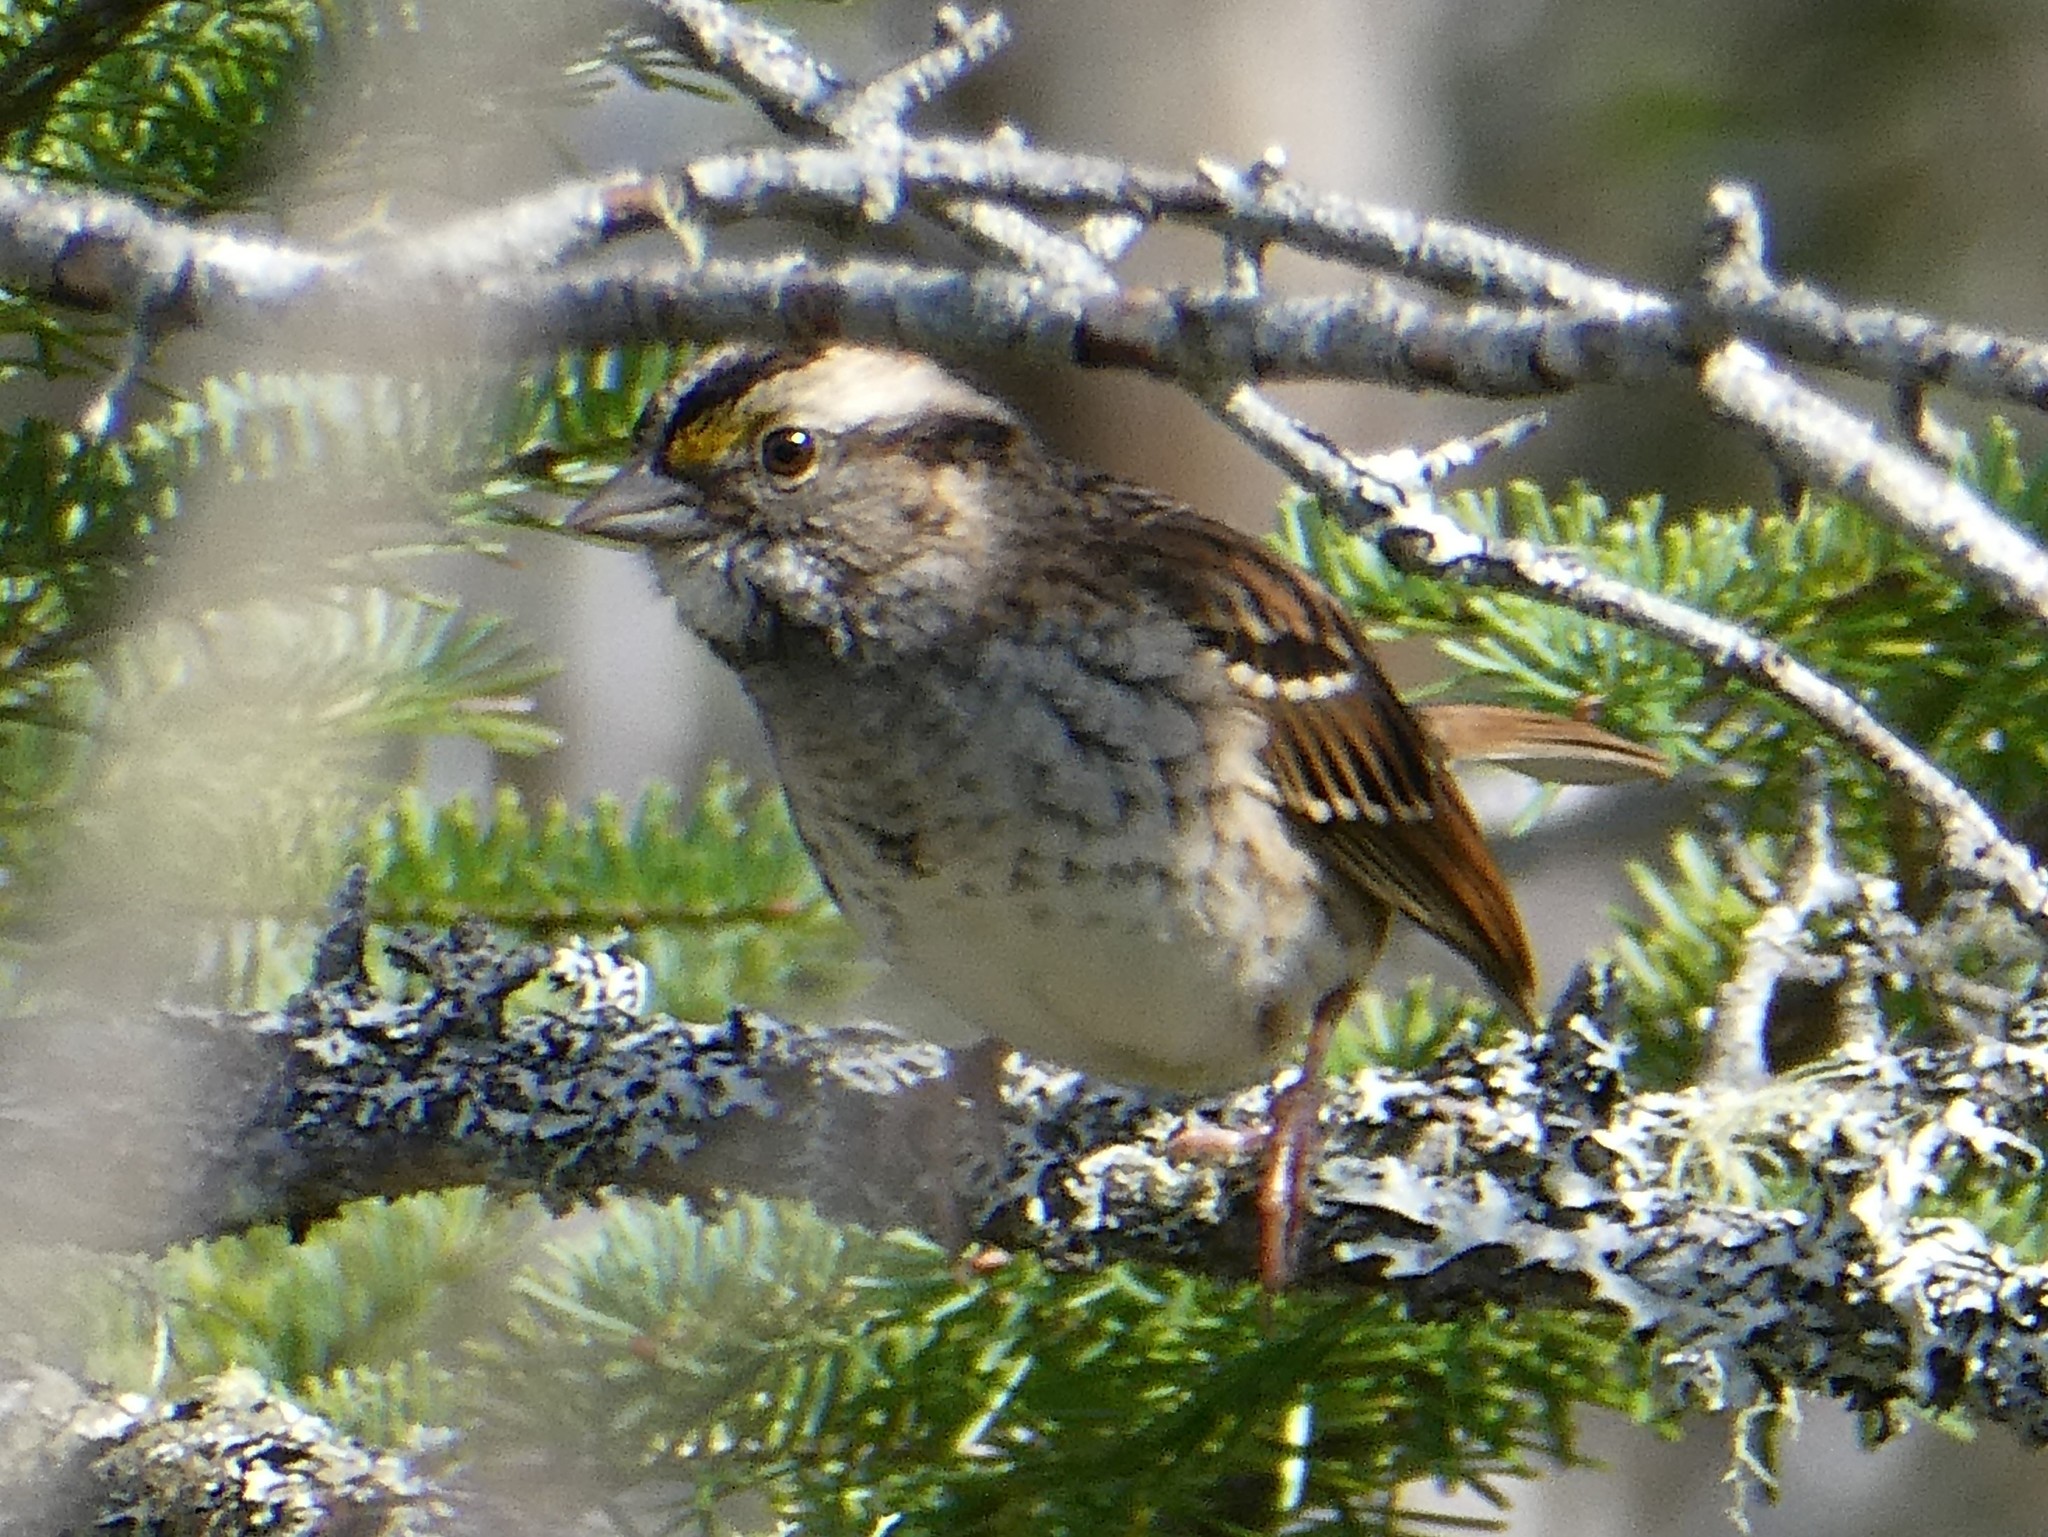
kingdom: Animalia
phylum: Chordata
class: Aves
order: Passeriformes
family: Passerellidae
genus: Zonotrichia
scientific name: Zonotrichia albicollis
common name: White-throated sparrow
